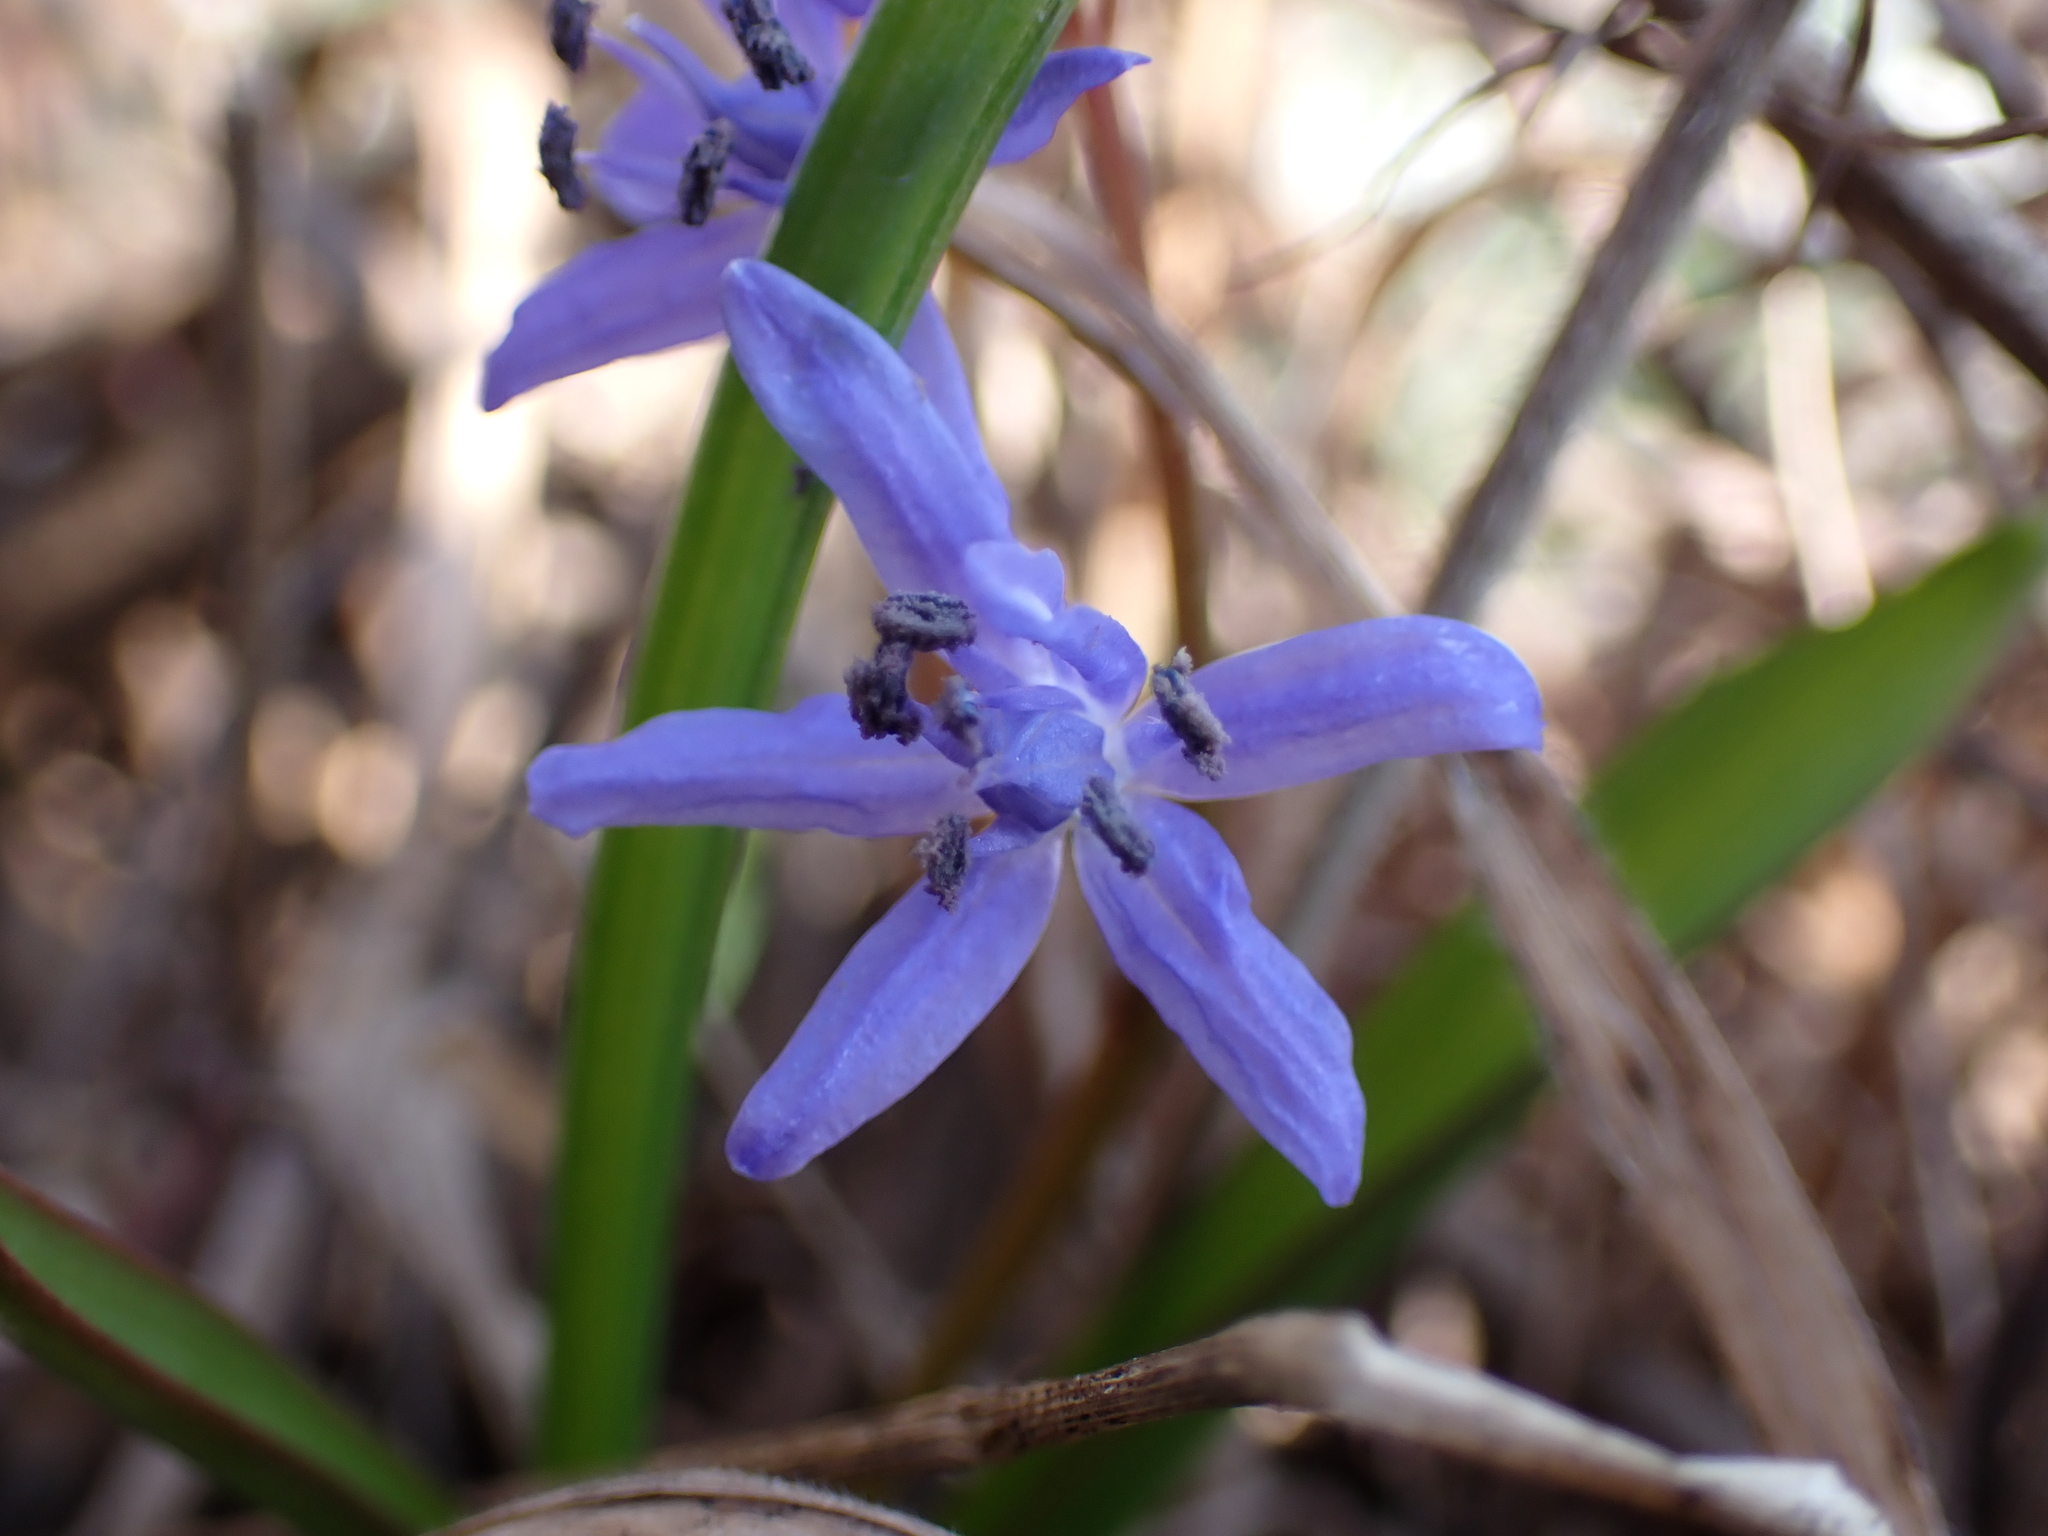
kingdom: Plantae
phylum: Tracheophyta
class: Liliopsida
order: Asparagales
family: Asparagaceae
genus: Scilla
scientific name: Scilla bifolia
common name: Alpine squill
